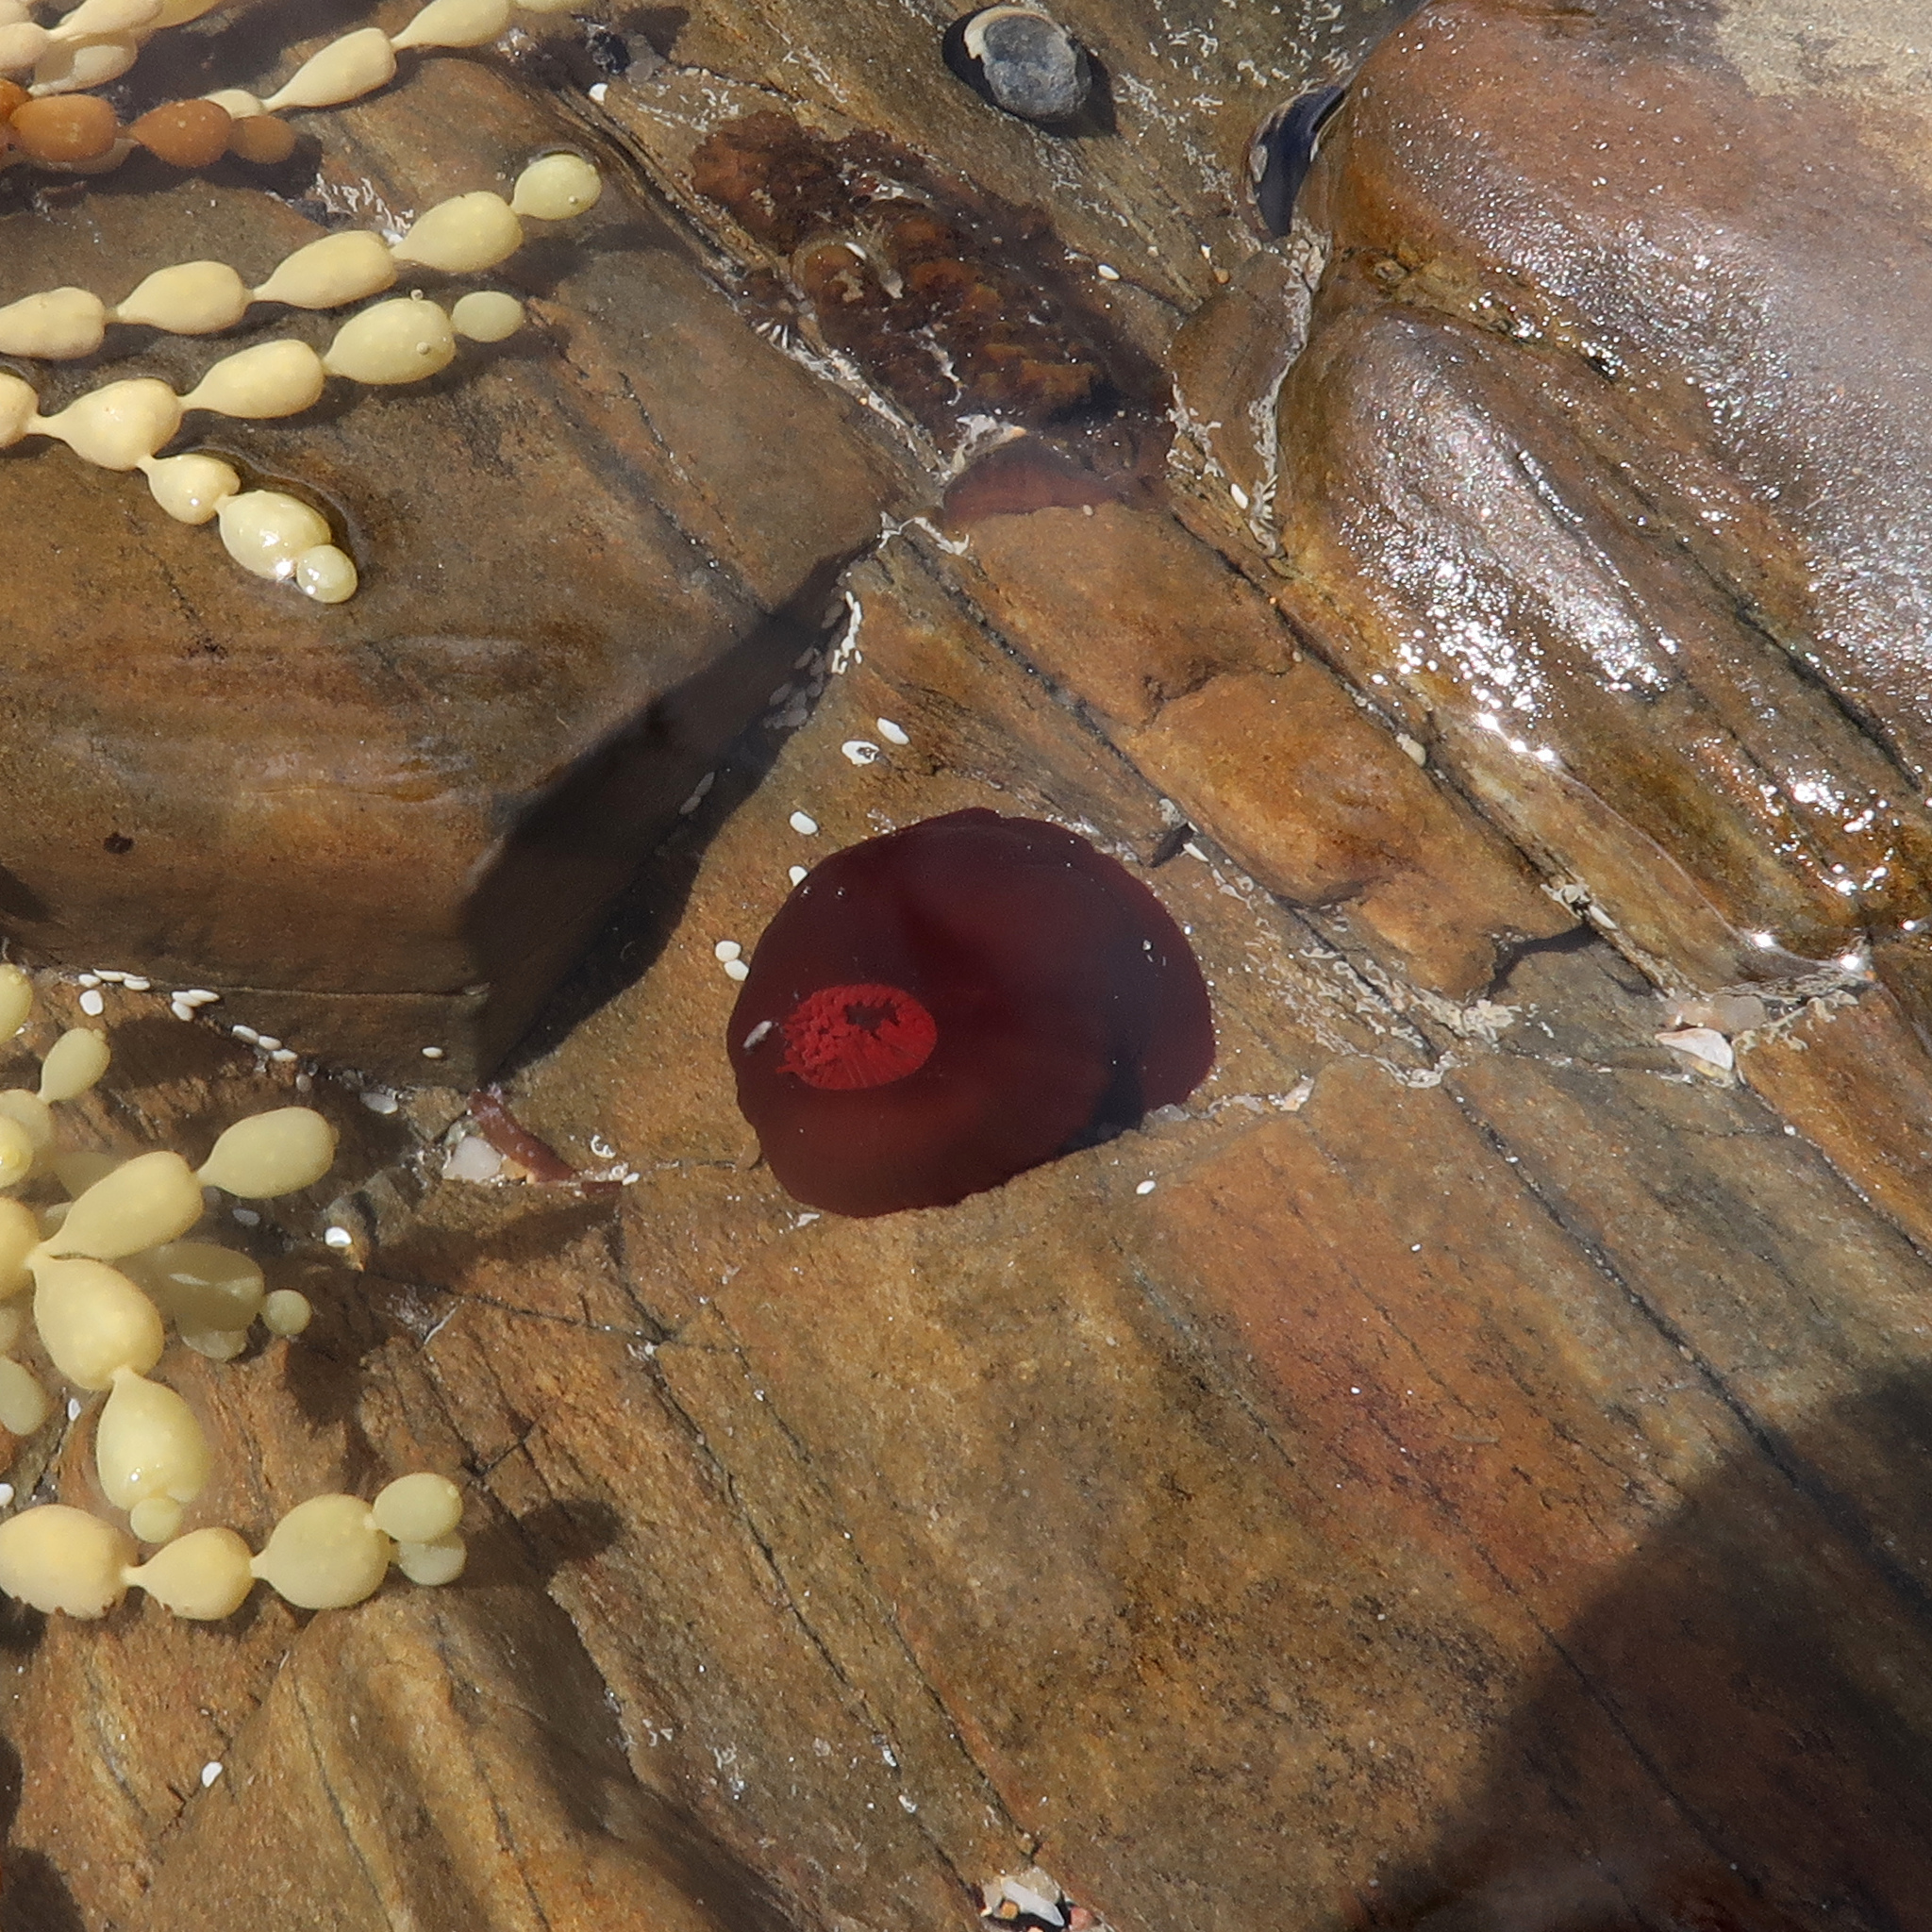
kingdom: Animalia
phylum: Cnidaria
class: Anthozoa
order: Actiniaria
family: Actiniidae
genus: Actinia
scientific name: Actinia tenebrosa
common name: Waratah anemone
